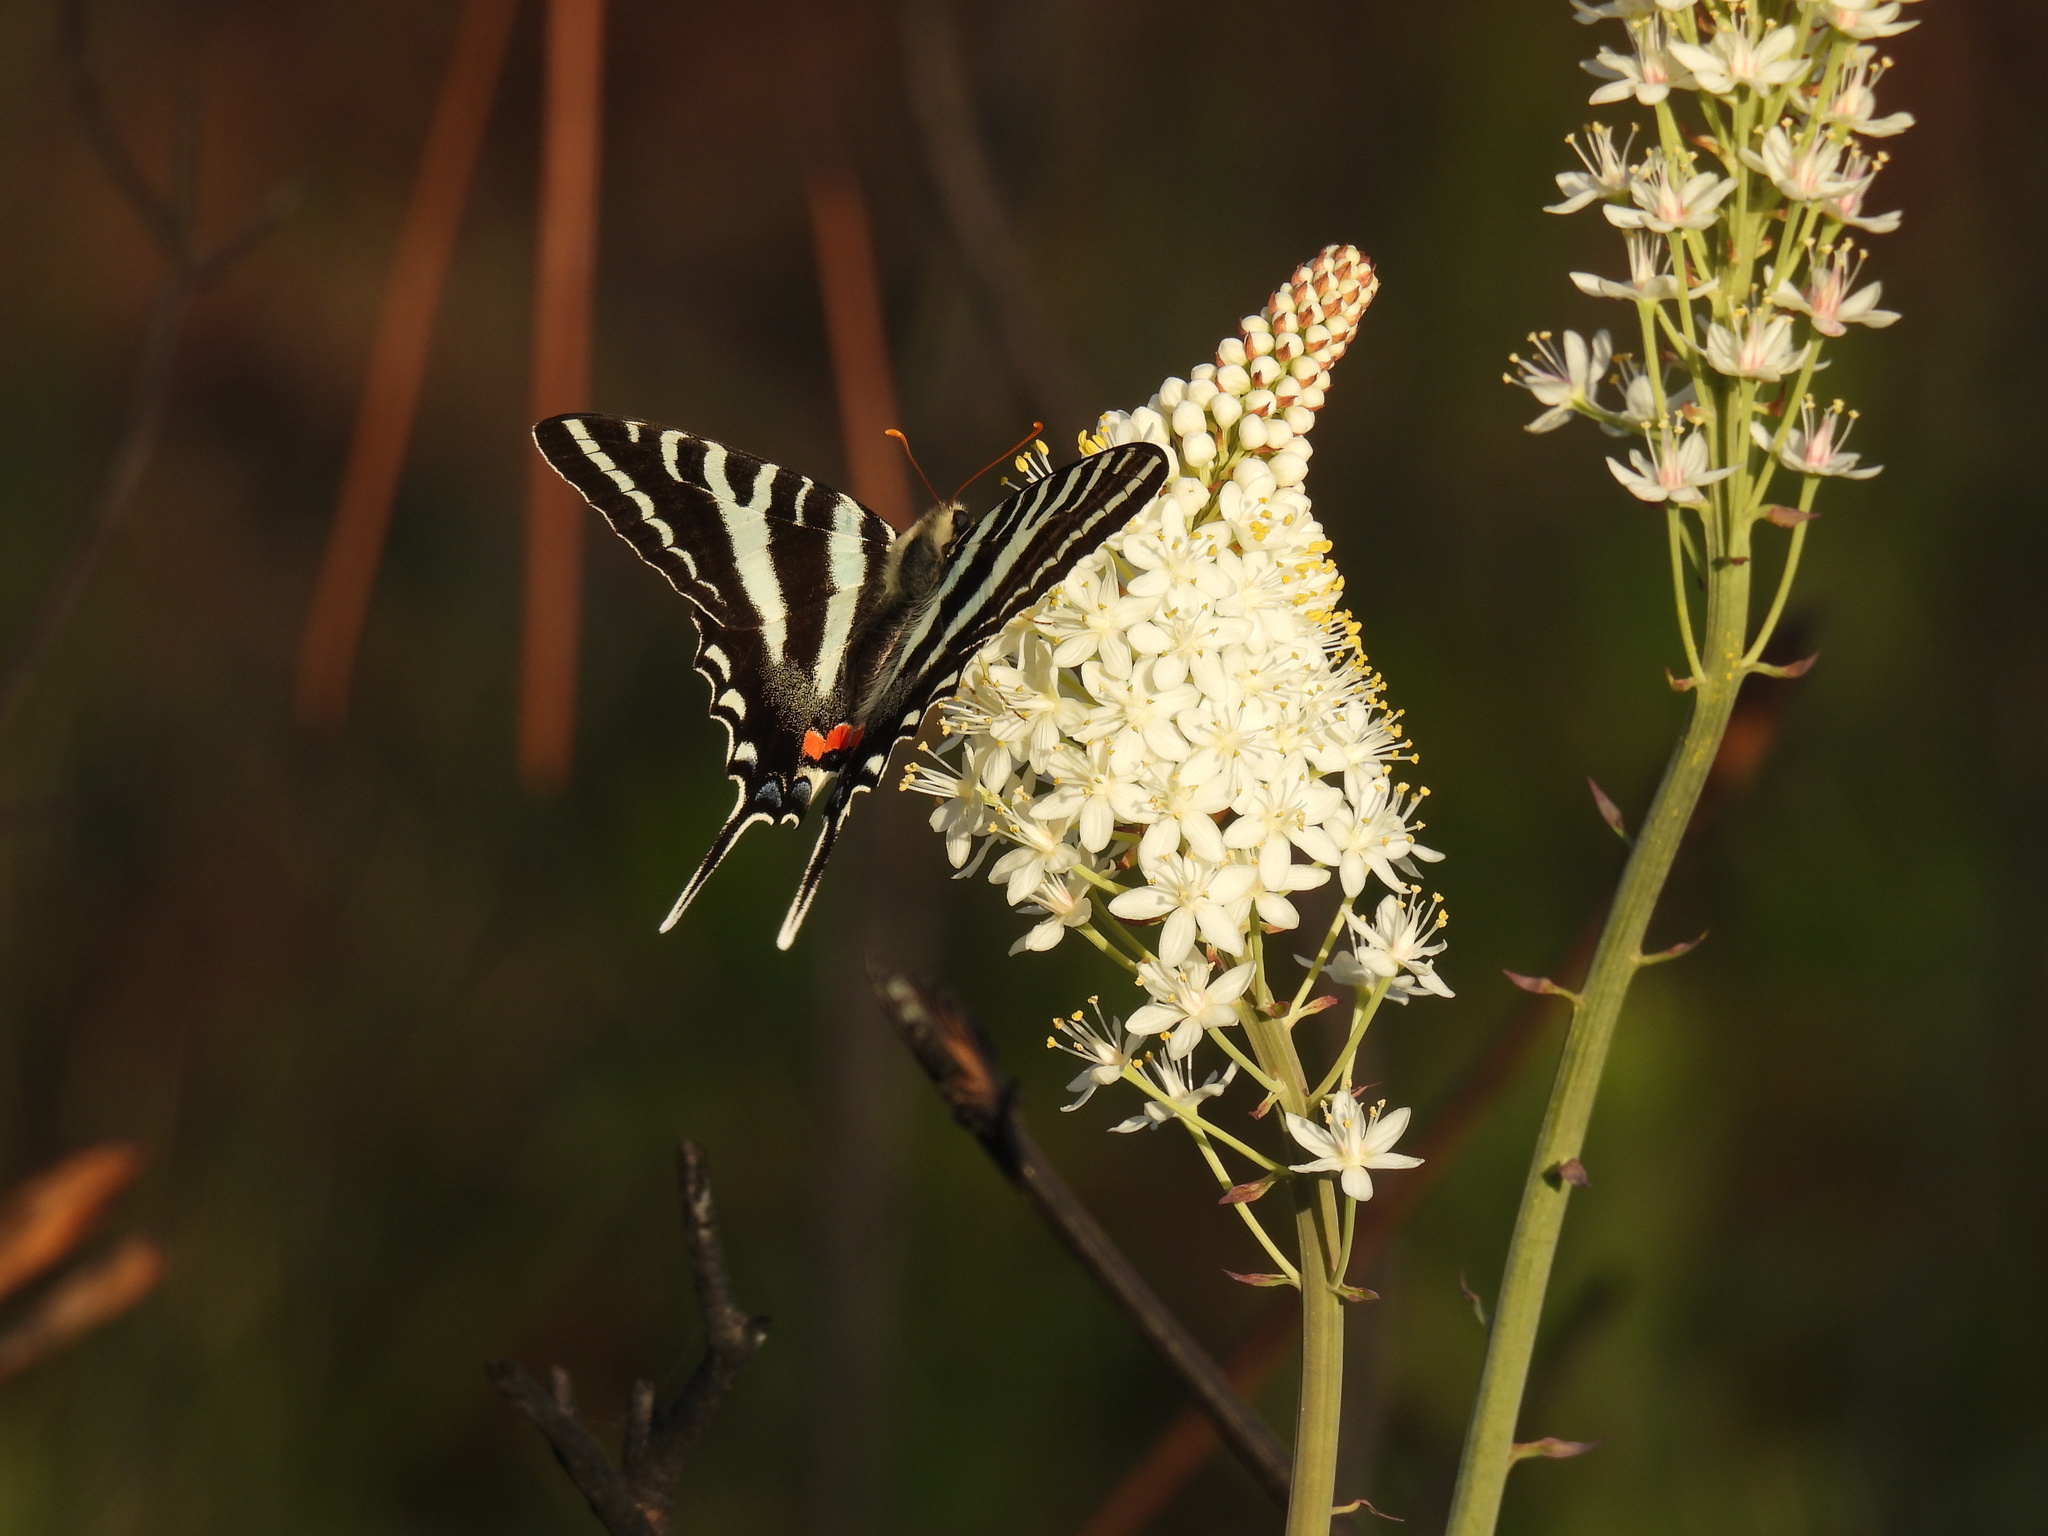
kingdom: Animalia
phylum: Arthropoda
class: Insecta
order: Lepidoptera
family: Papilionidae
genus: Protographium
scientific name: Protographium marcellus
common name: Zebra swallowtail
